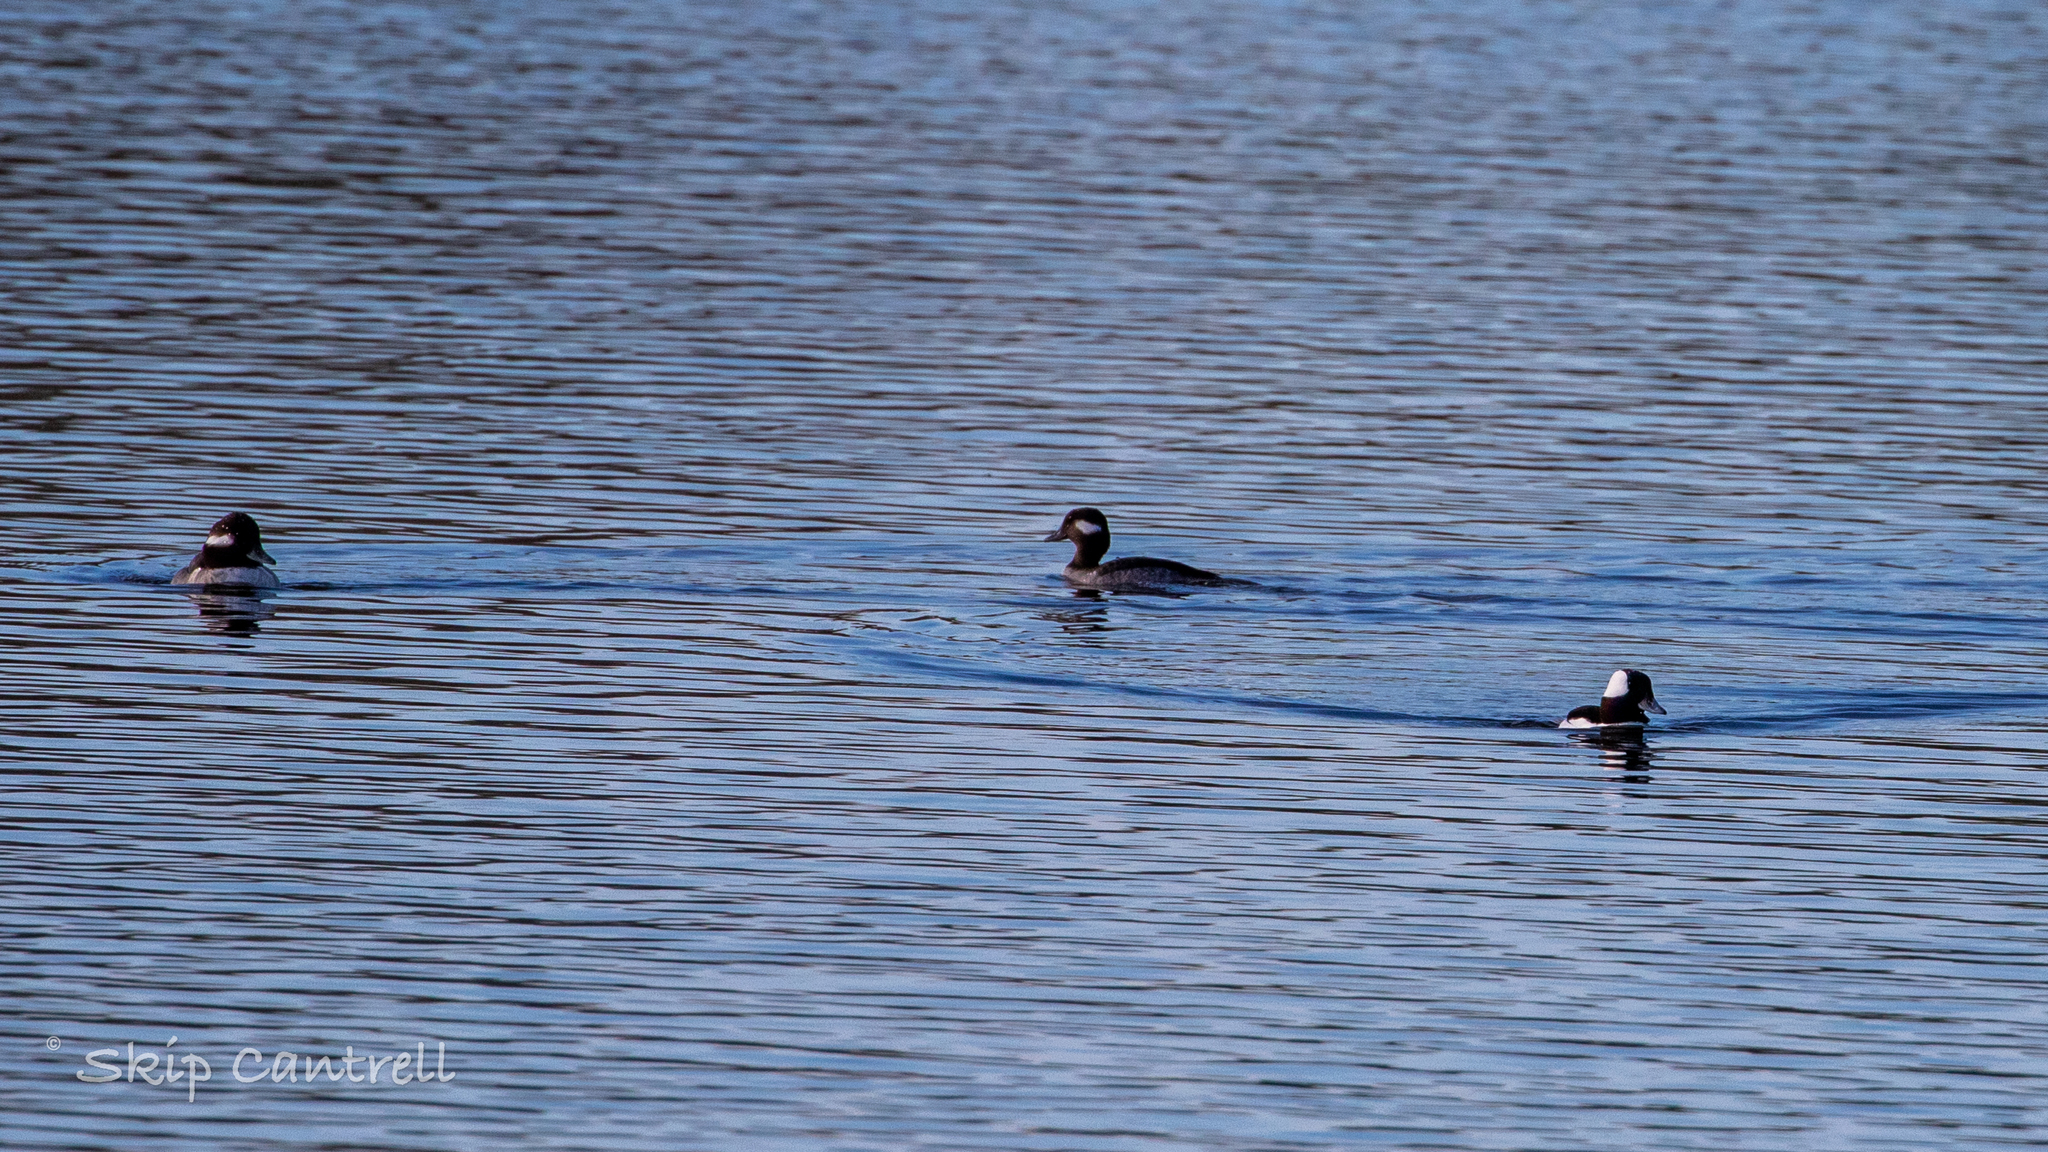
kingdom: Animalia
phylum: Chordata
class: Aves
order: Anseriformes
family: Anatidae
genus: Bucephala
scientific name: Bucephala albeola
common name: Bufflehead
